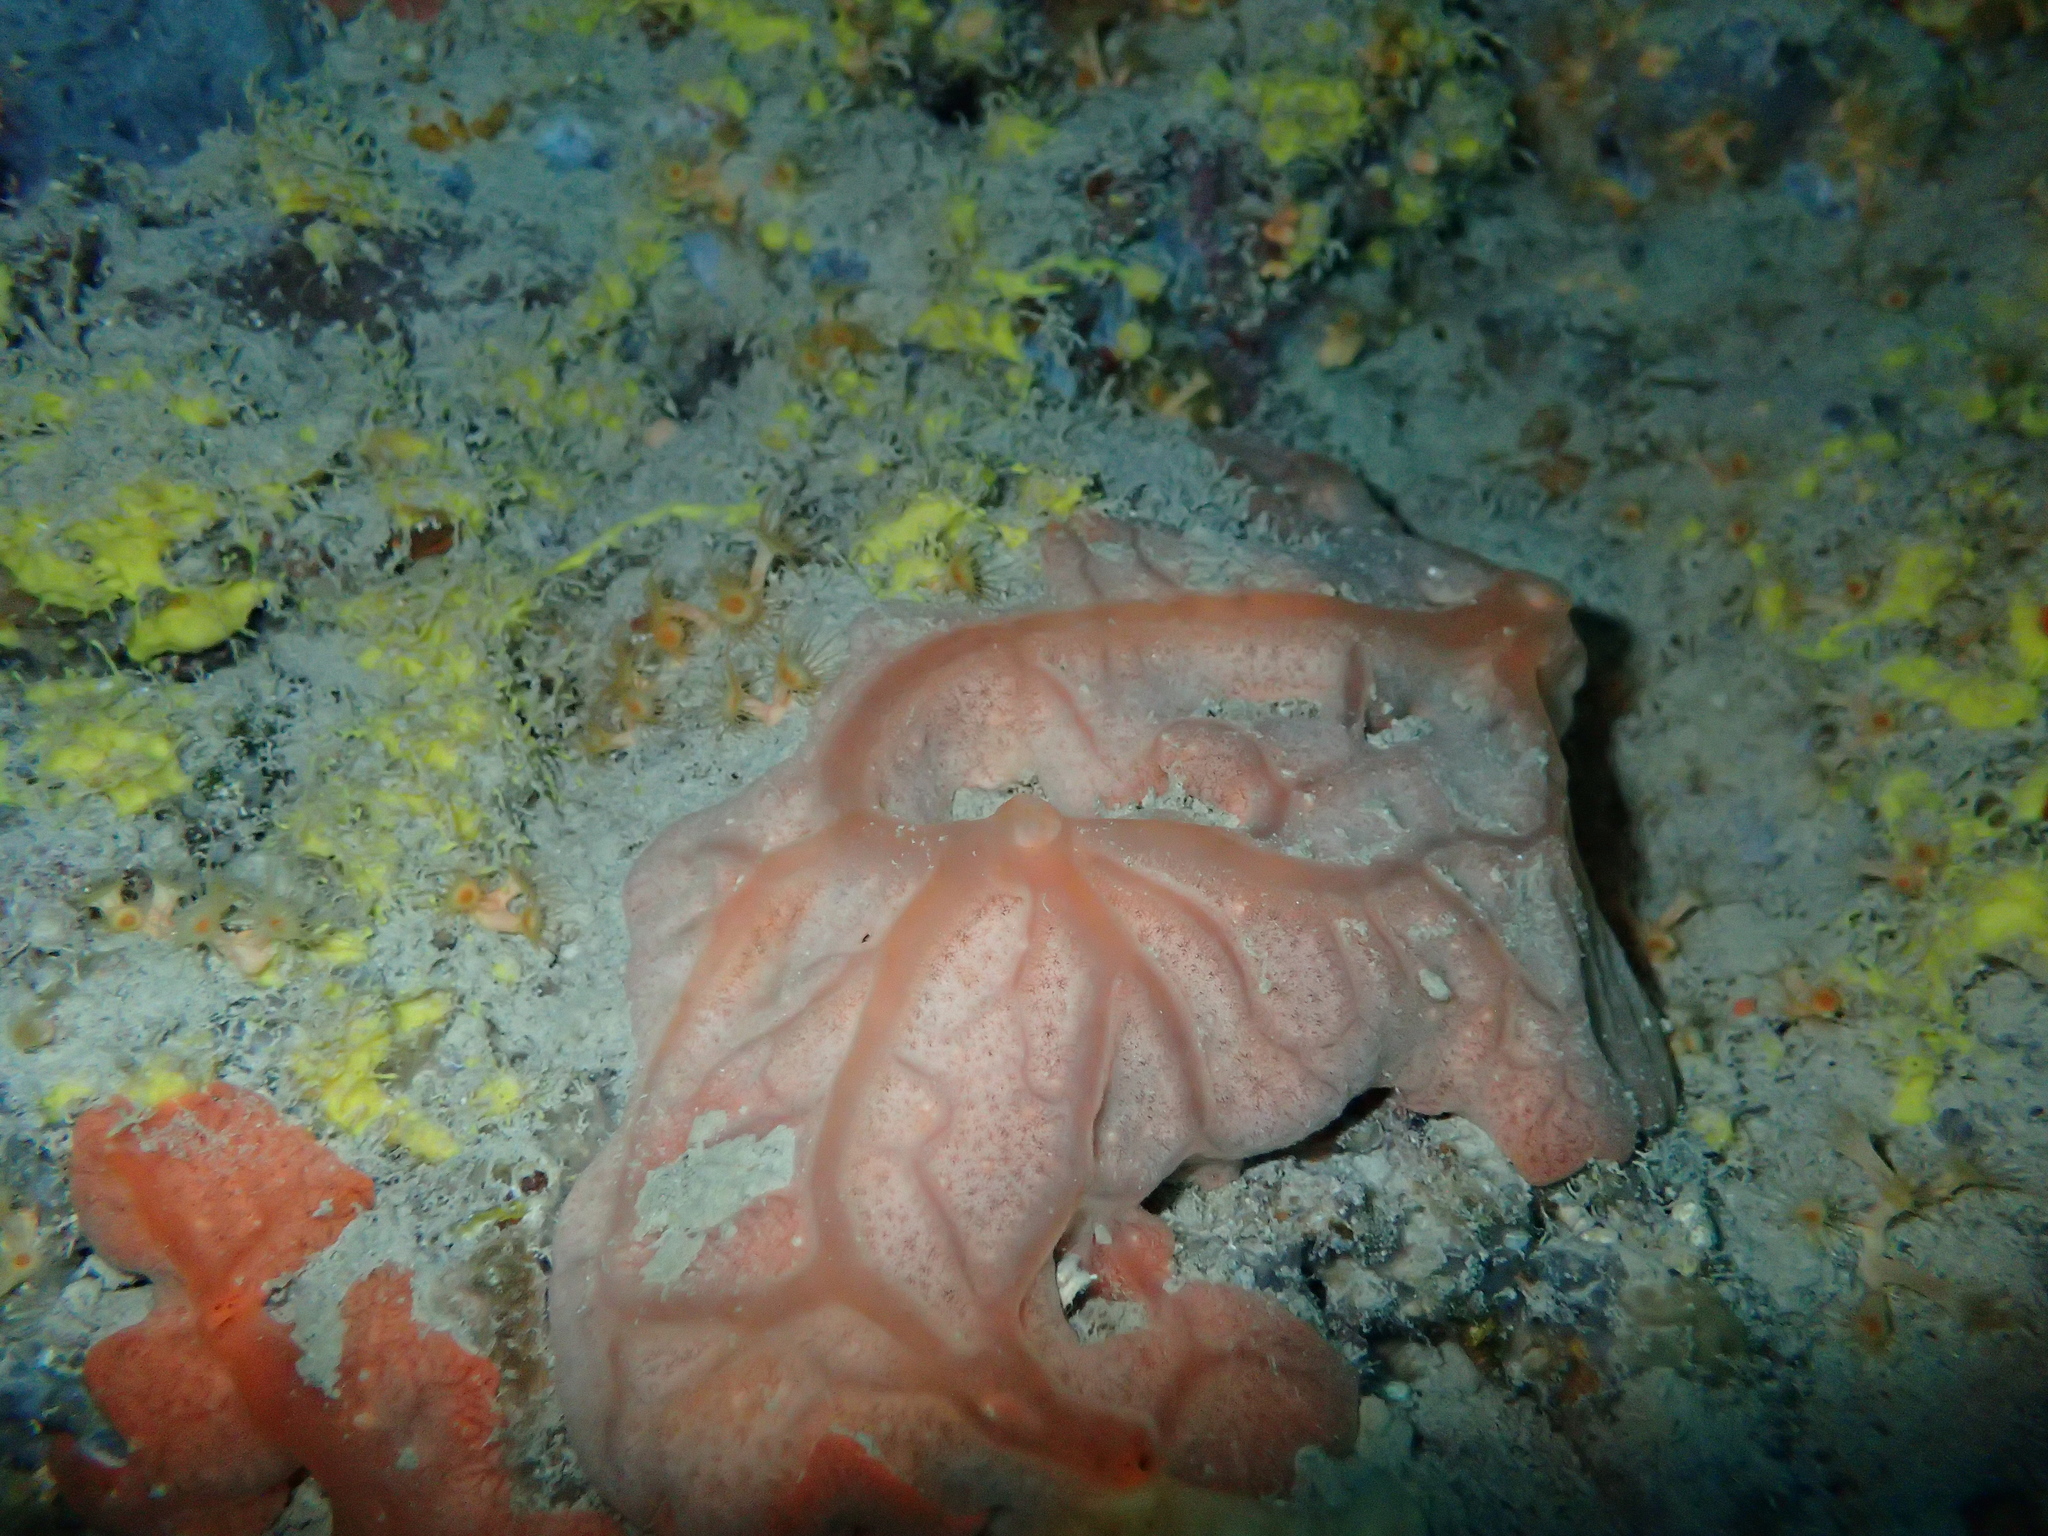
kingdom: Animalia
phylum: Porifera
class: Demospongiae
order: Clionaida
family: Spirastrellidae
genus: Spirastrella
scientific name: Spirastrella cunctatrix
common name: Encrusting orange sponge
